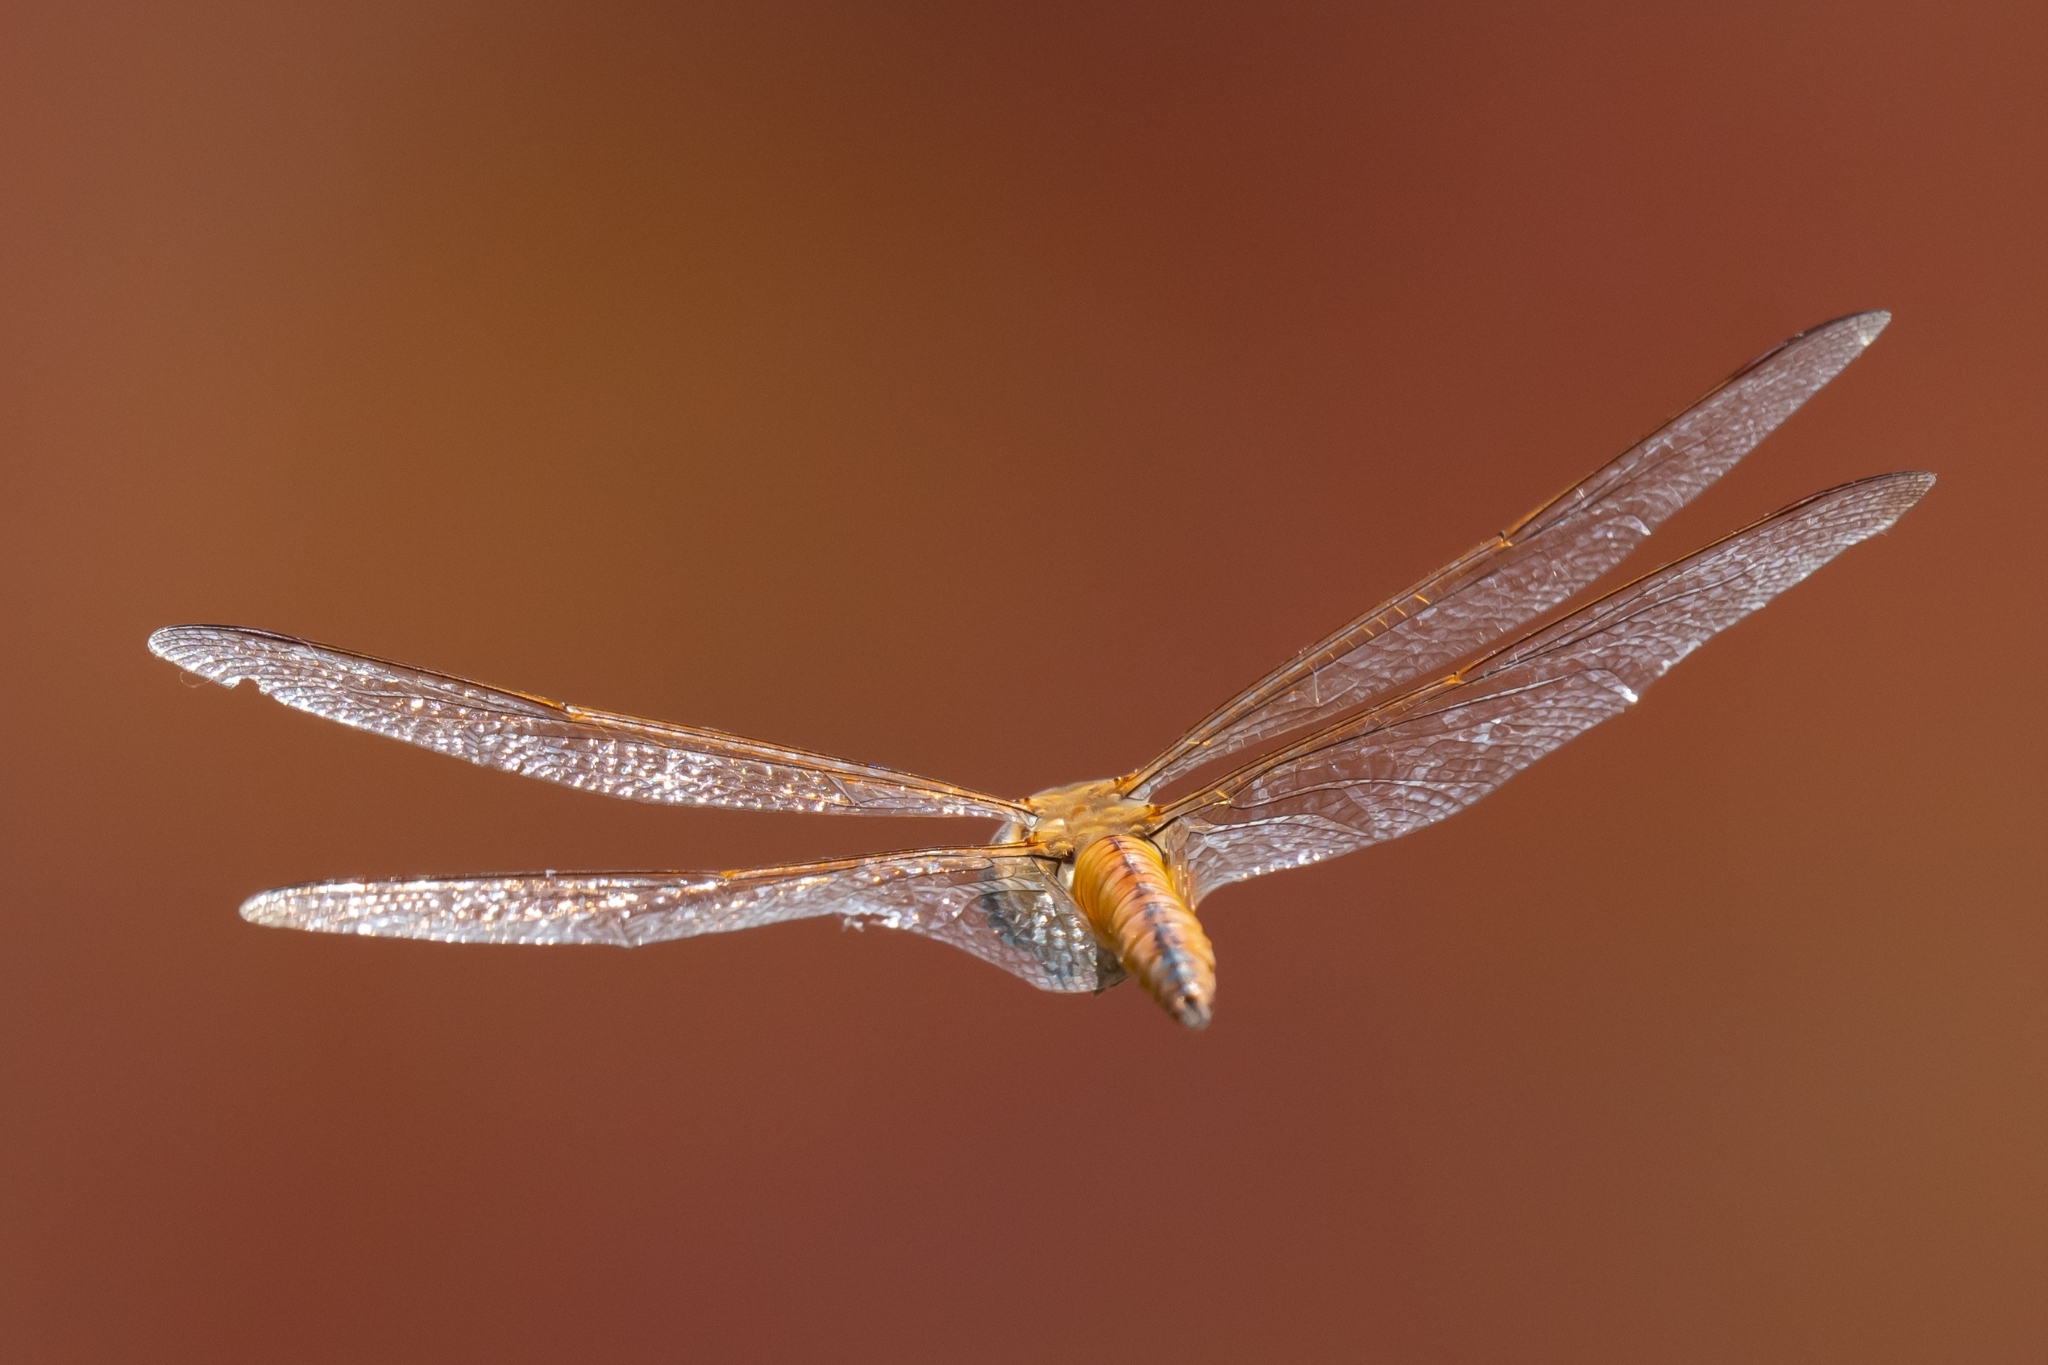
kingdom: Animalia
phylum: Arthropoda
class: Insecta
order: Odonata
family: Libellulidae
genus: Pantala
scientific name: Pantala flavescens
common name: Wandering glider
